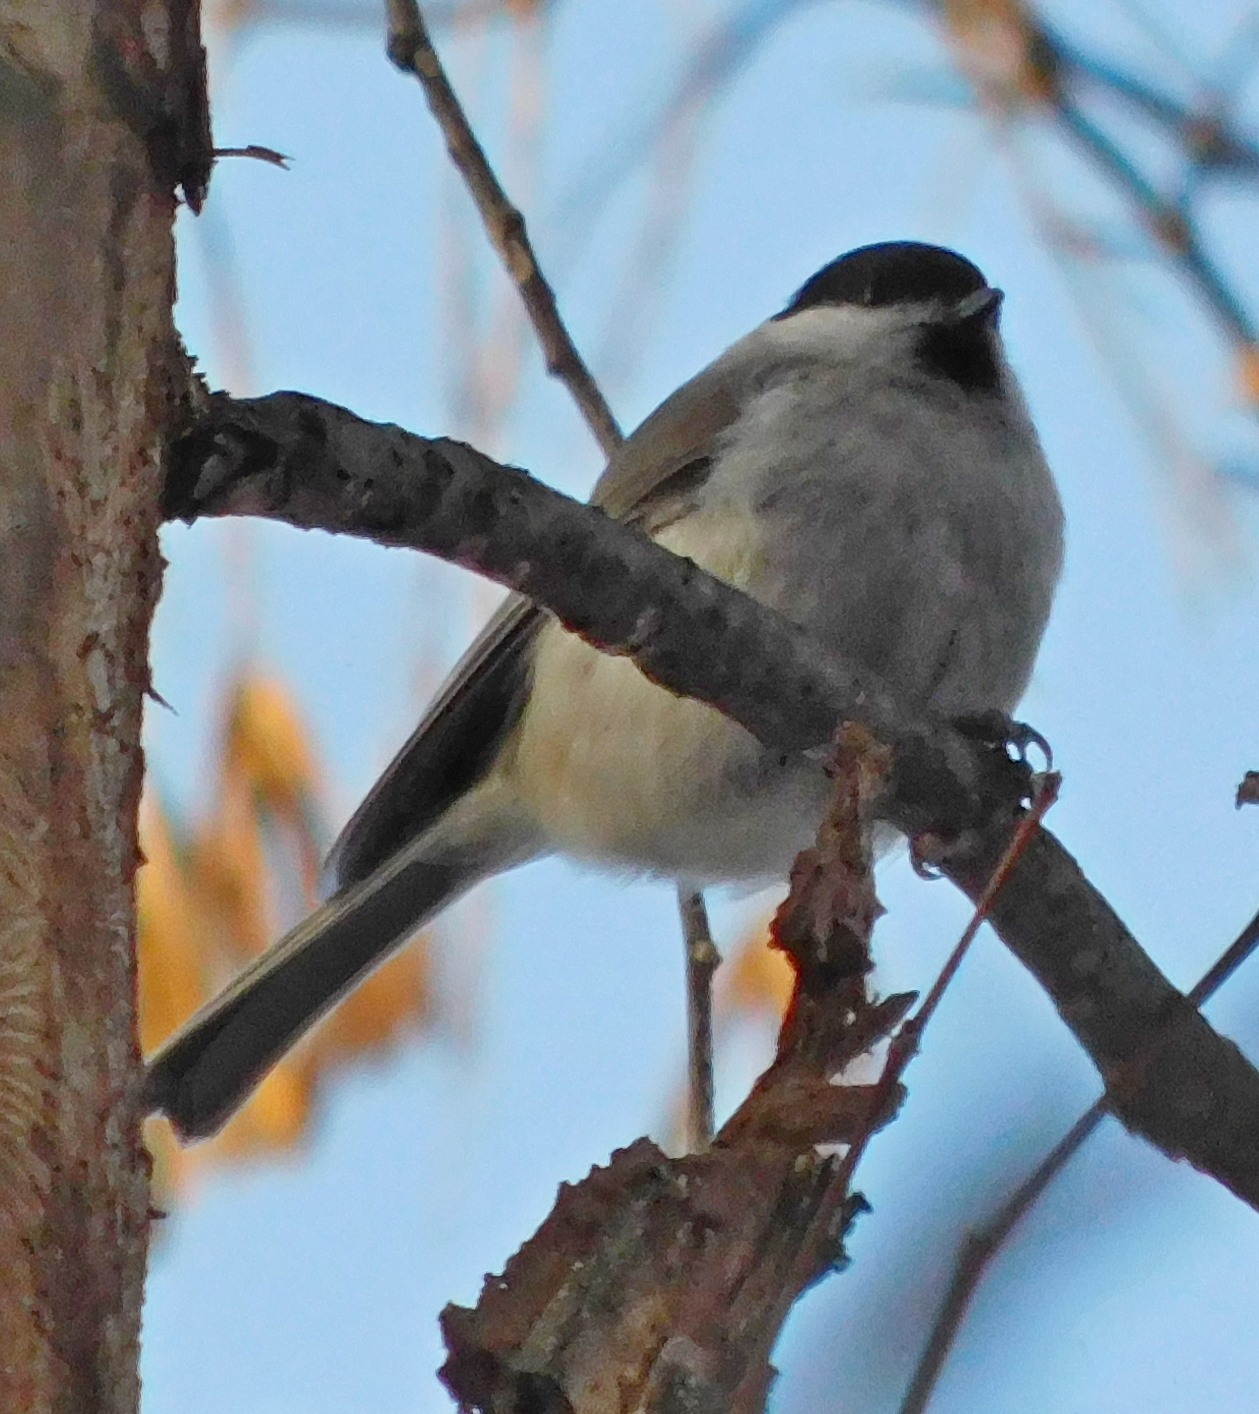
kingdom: Animalia
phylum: Chordata
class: Aves
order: Passeriformes
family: Paridae
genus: Poecile
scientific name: Poecile palustris
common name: Marsh tit
